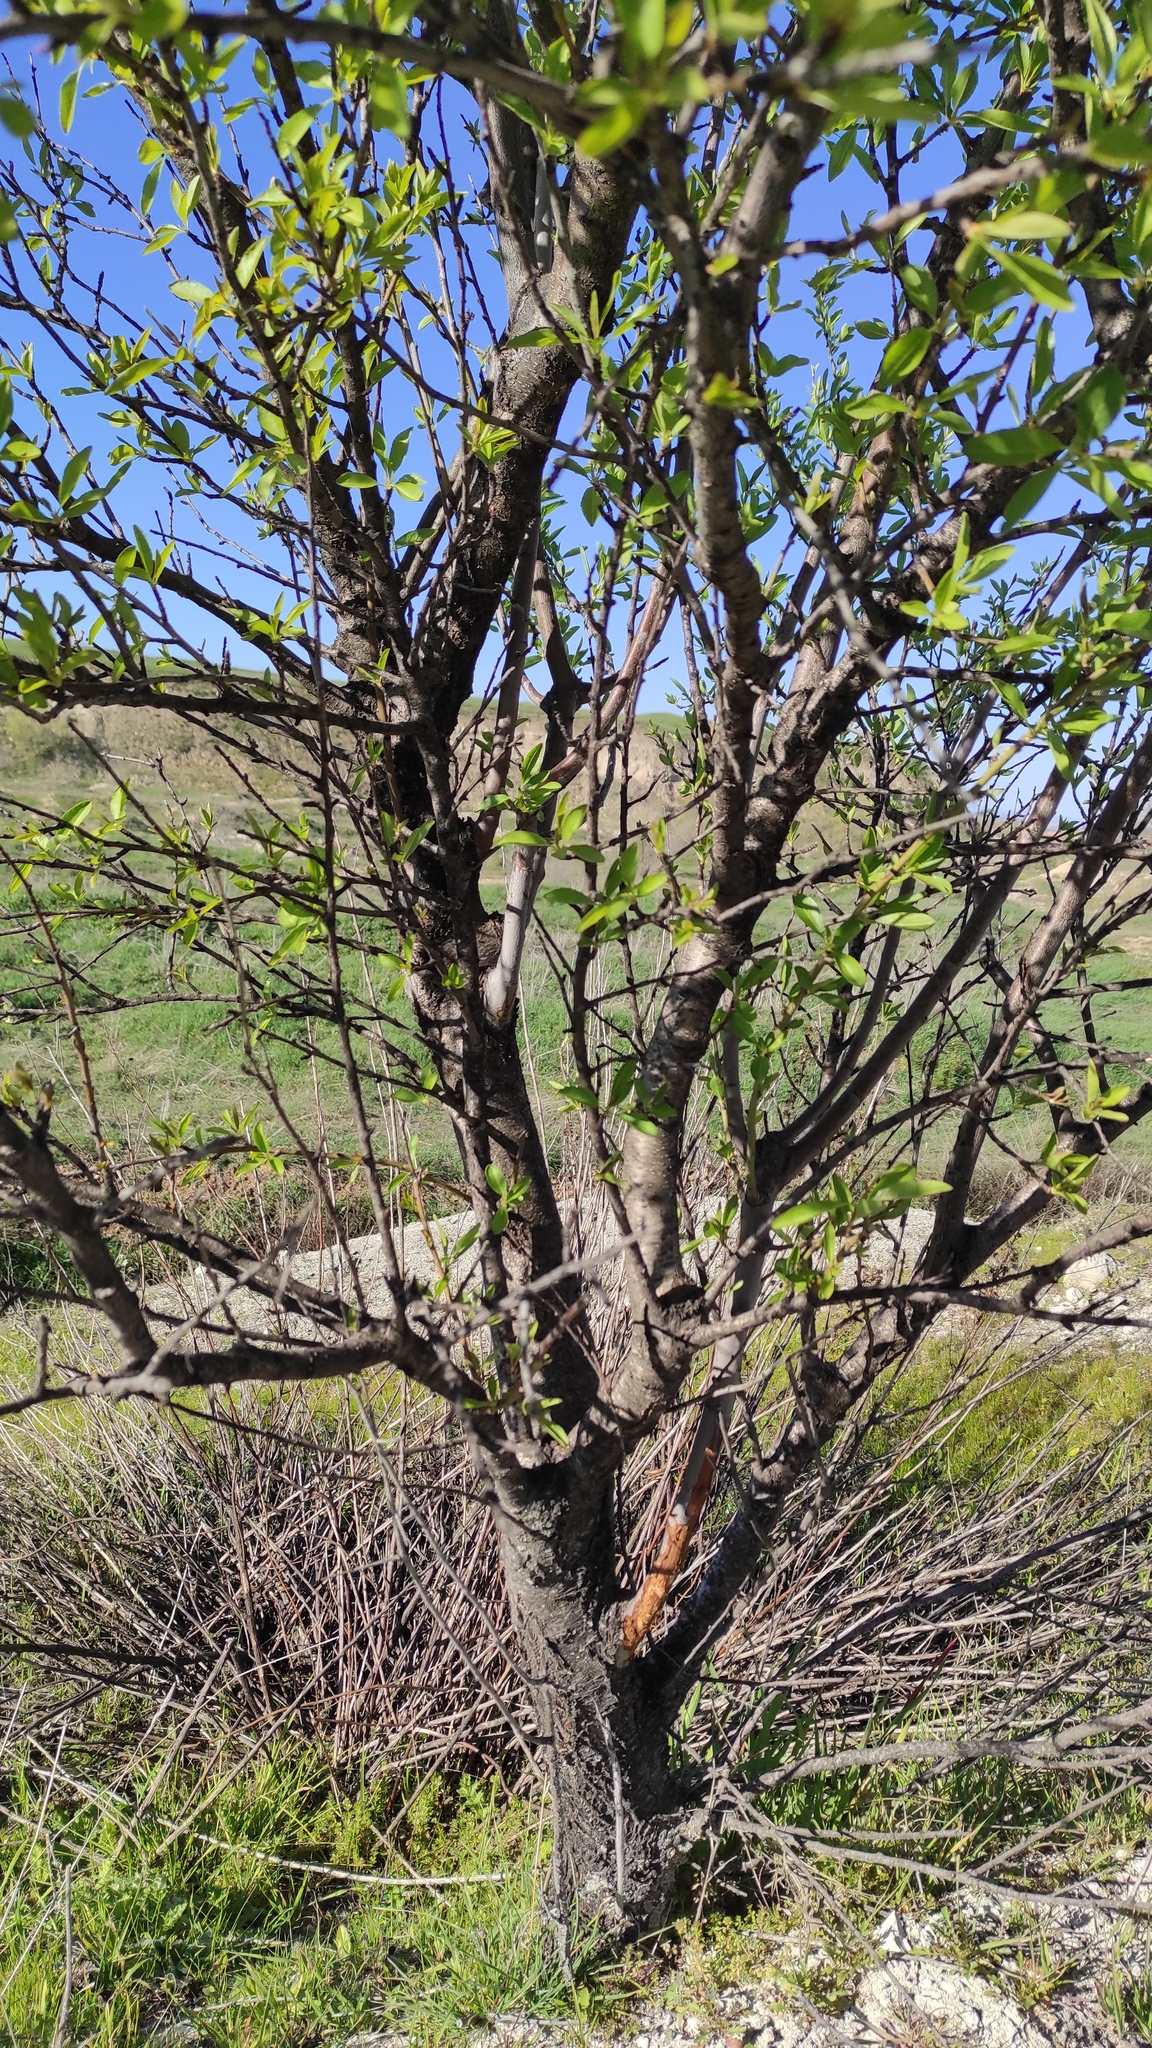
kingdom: Plantae
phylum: Tracheophyta
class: Magnoliopsida
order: Rosales
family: Rosaceae
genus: Prunus
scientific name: Prunus amygdalus
